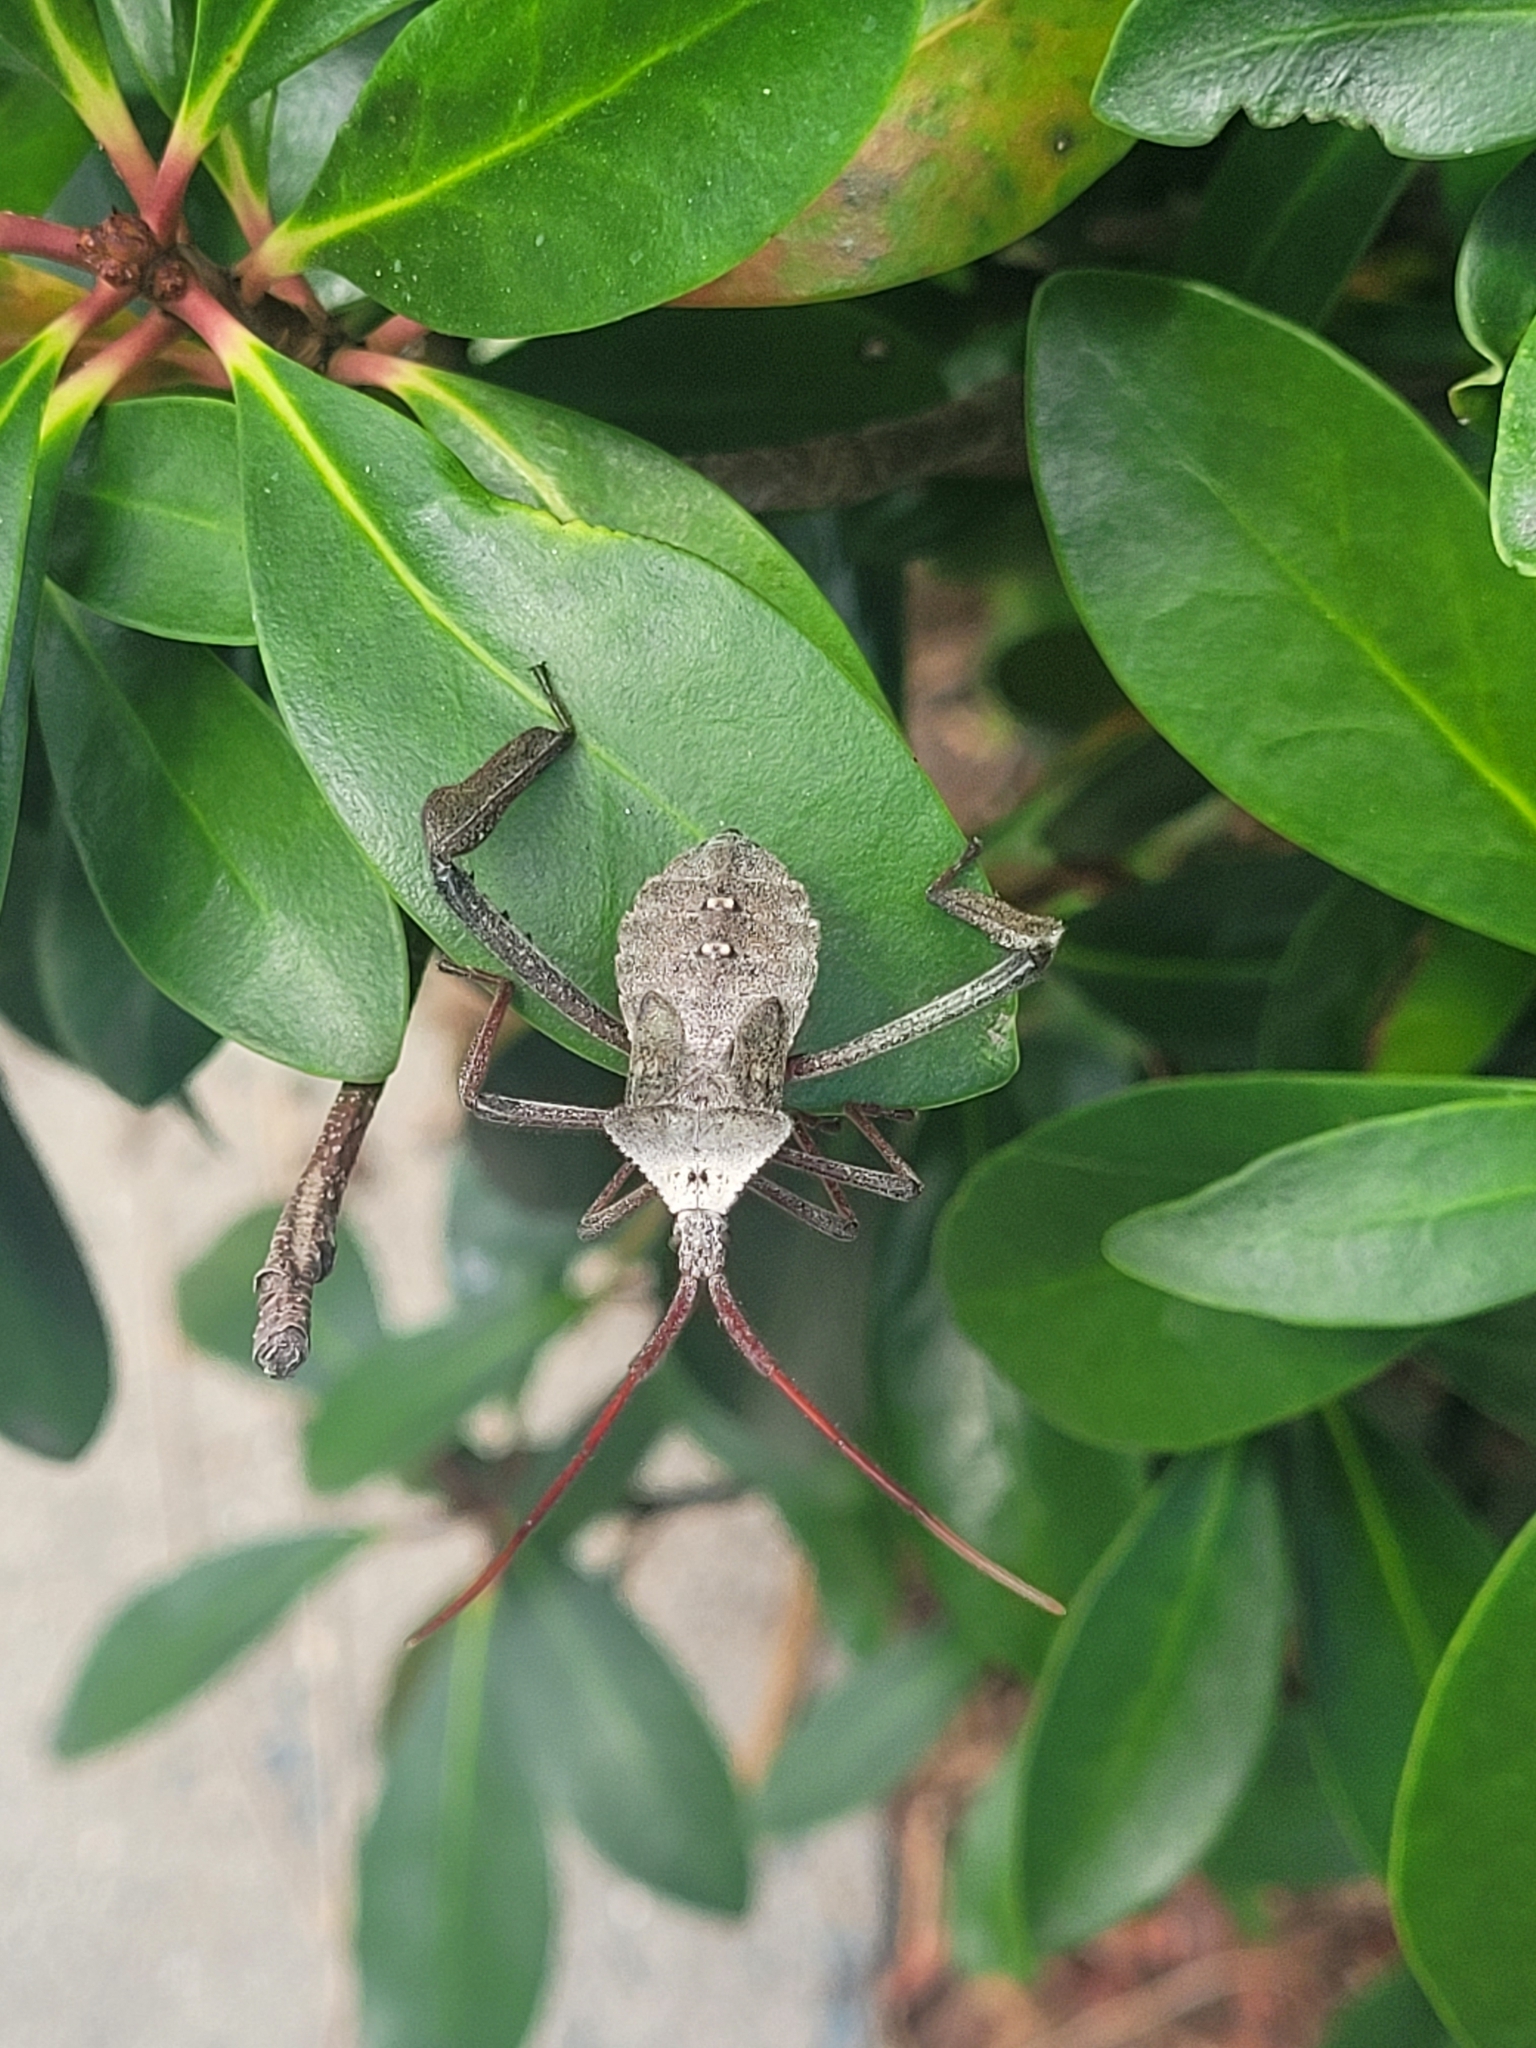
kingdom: Animalia
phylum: Arthropoda
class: Insecta
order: Hemiptera
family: Coreidae
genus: Acanthocephala
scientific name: Acanthocephala declivis
